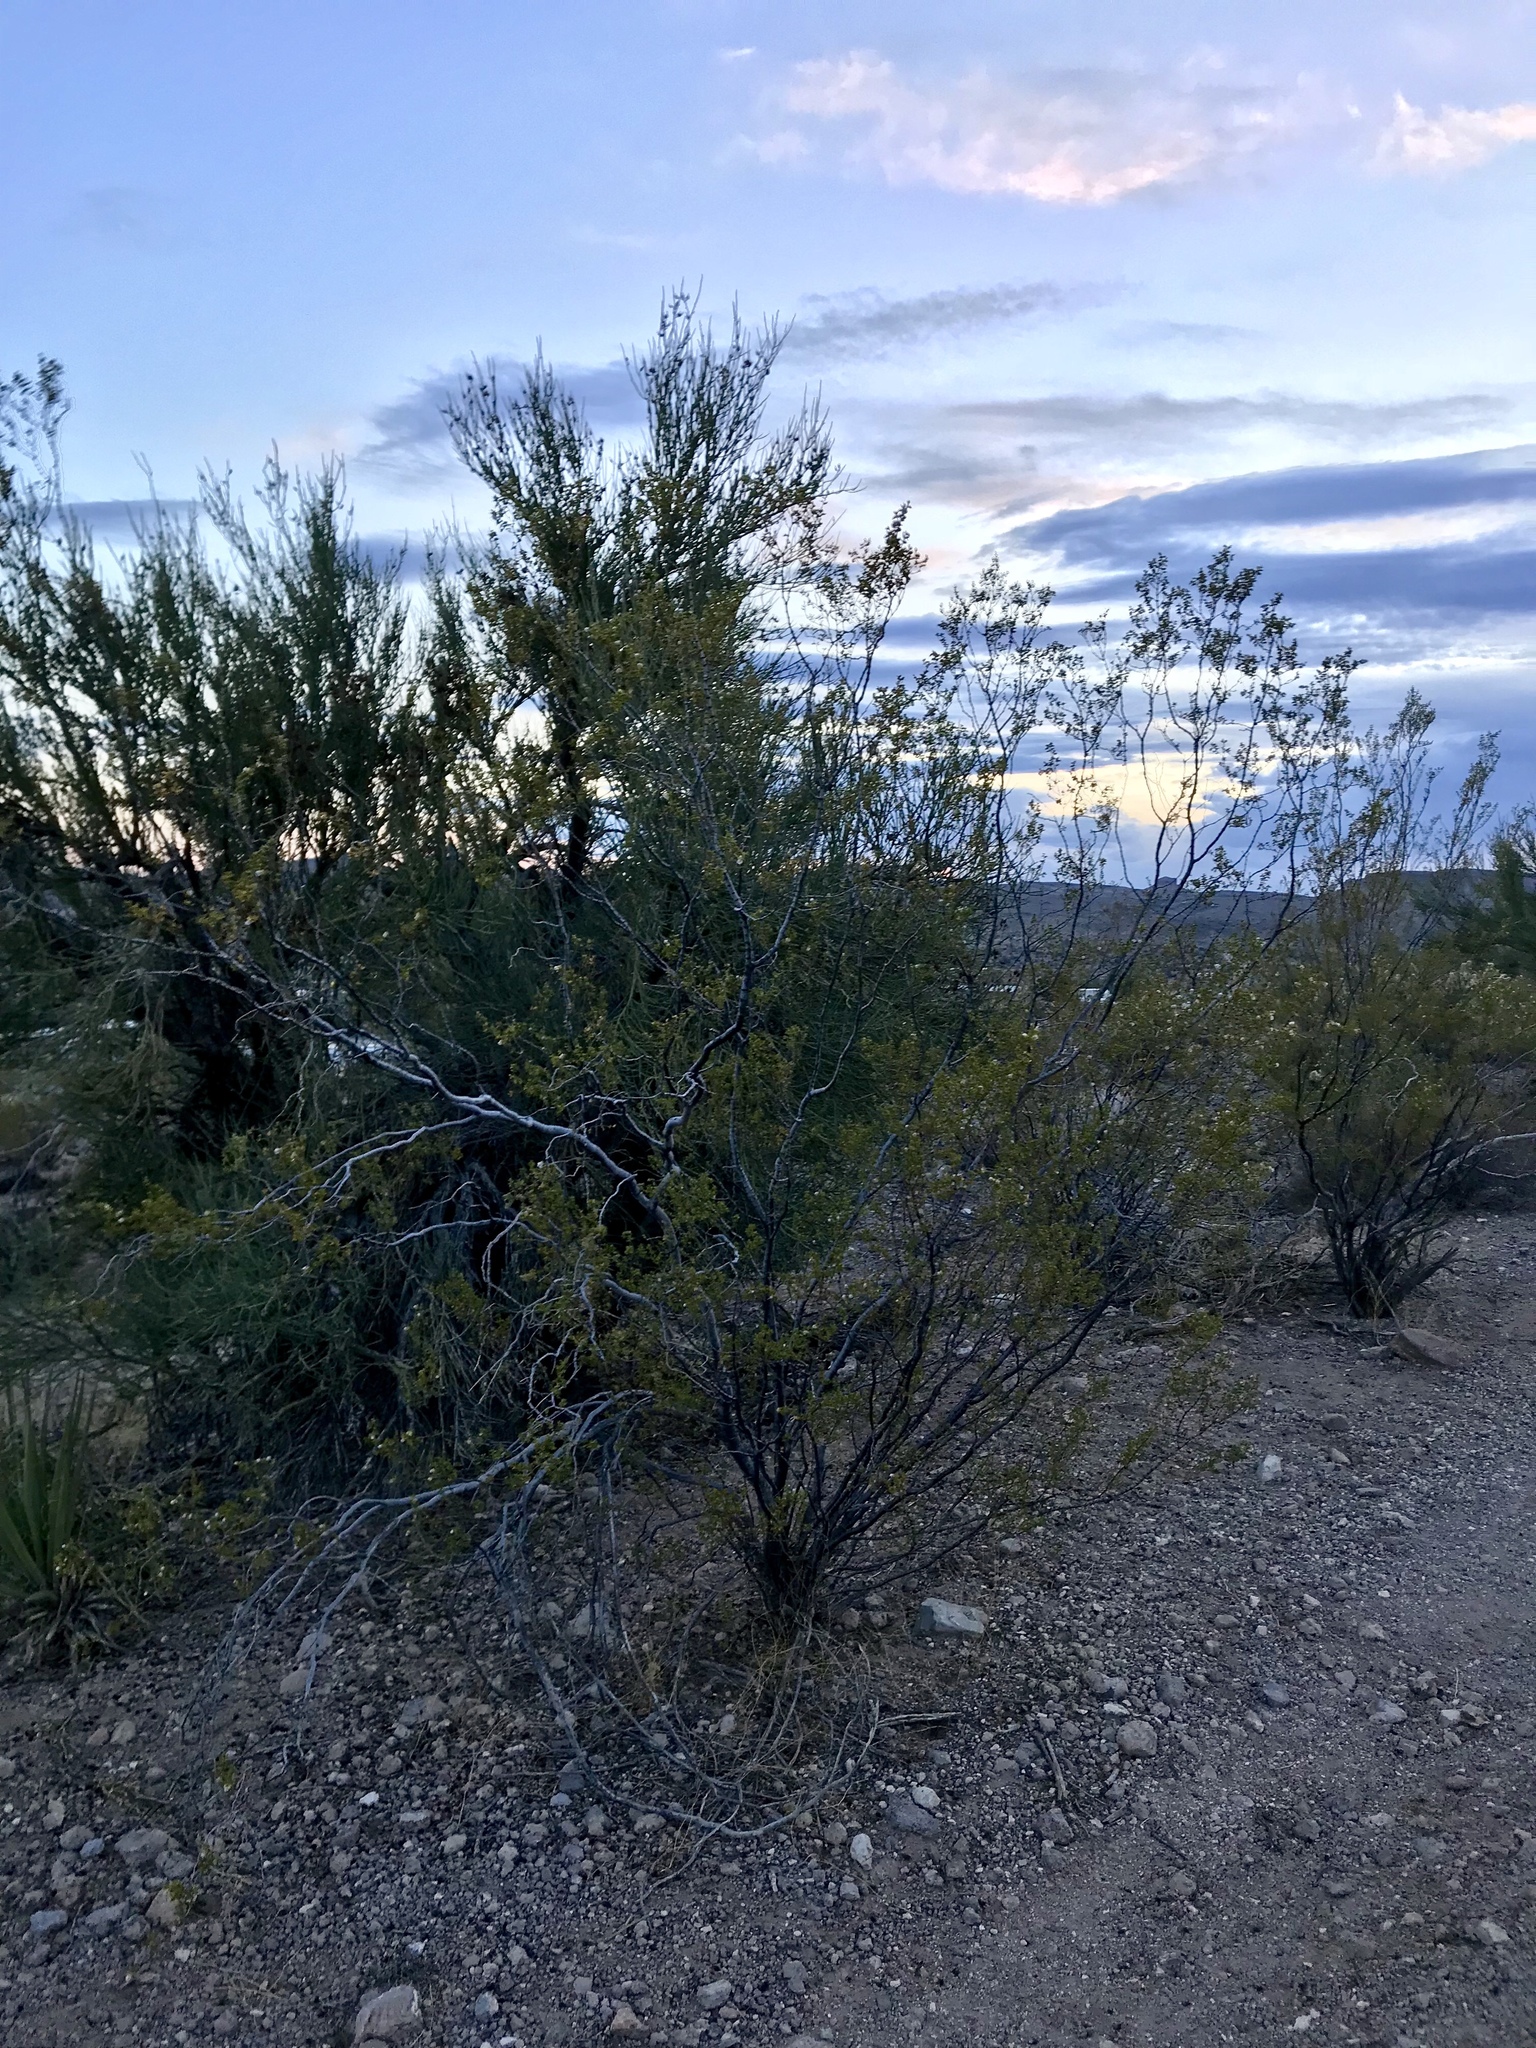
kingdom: Plantae
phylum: Tracheophyta
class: Magnoliopsida
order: Zygophyllales
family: Zygophyllaceae
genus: Larrea
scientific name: Larrea tridentata
